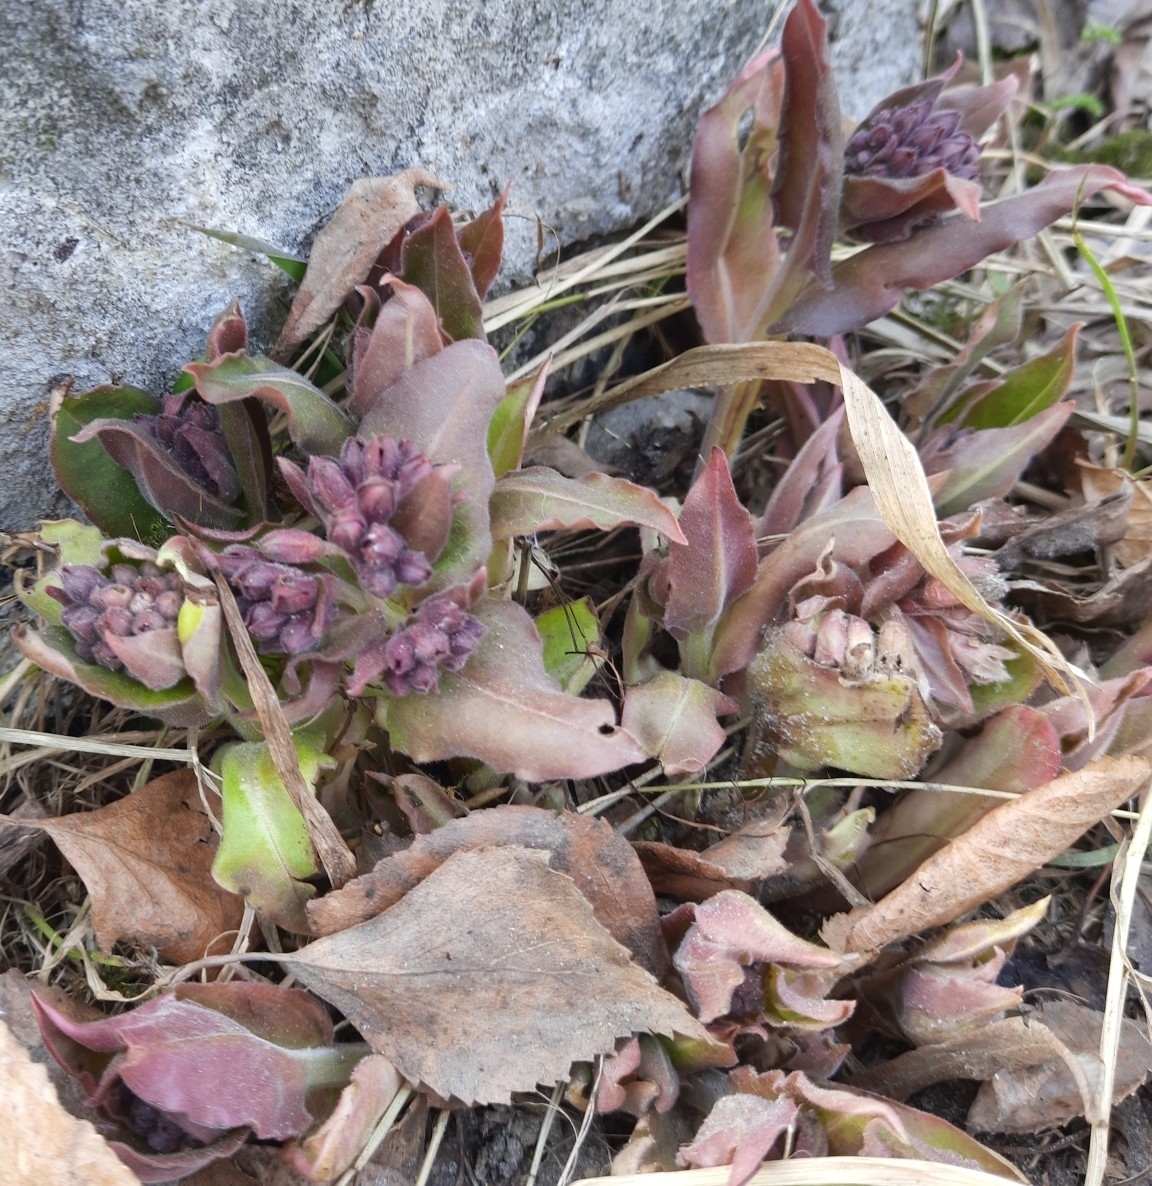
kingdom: Plantae
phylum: Tracheophyta
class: Magnoliopsida
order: Boraginales
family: Boraginaceae
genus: Pulmonaria
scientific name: Pulmonaria mollis
